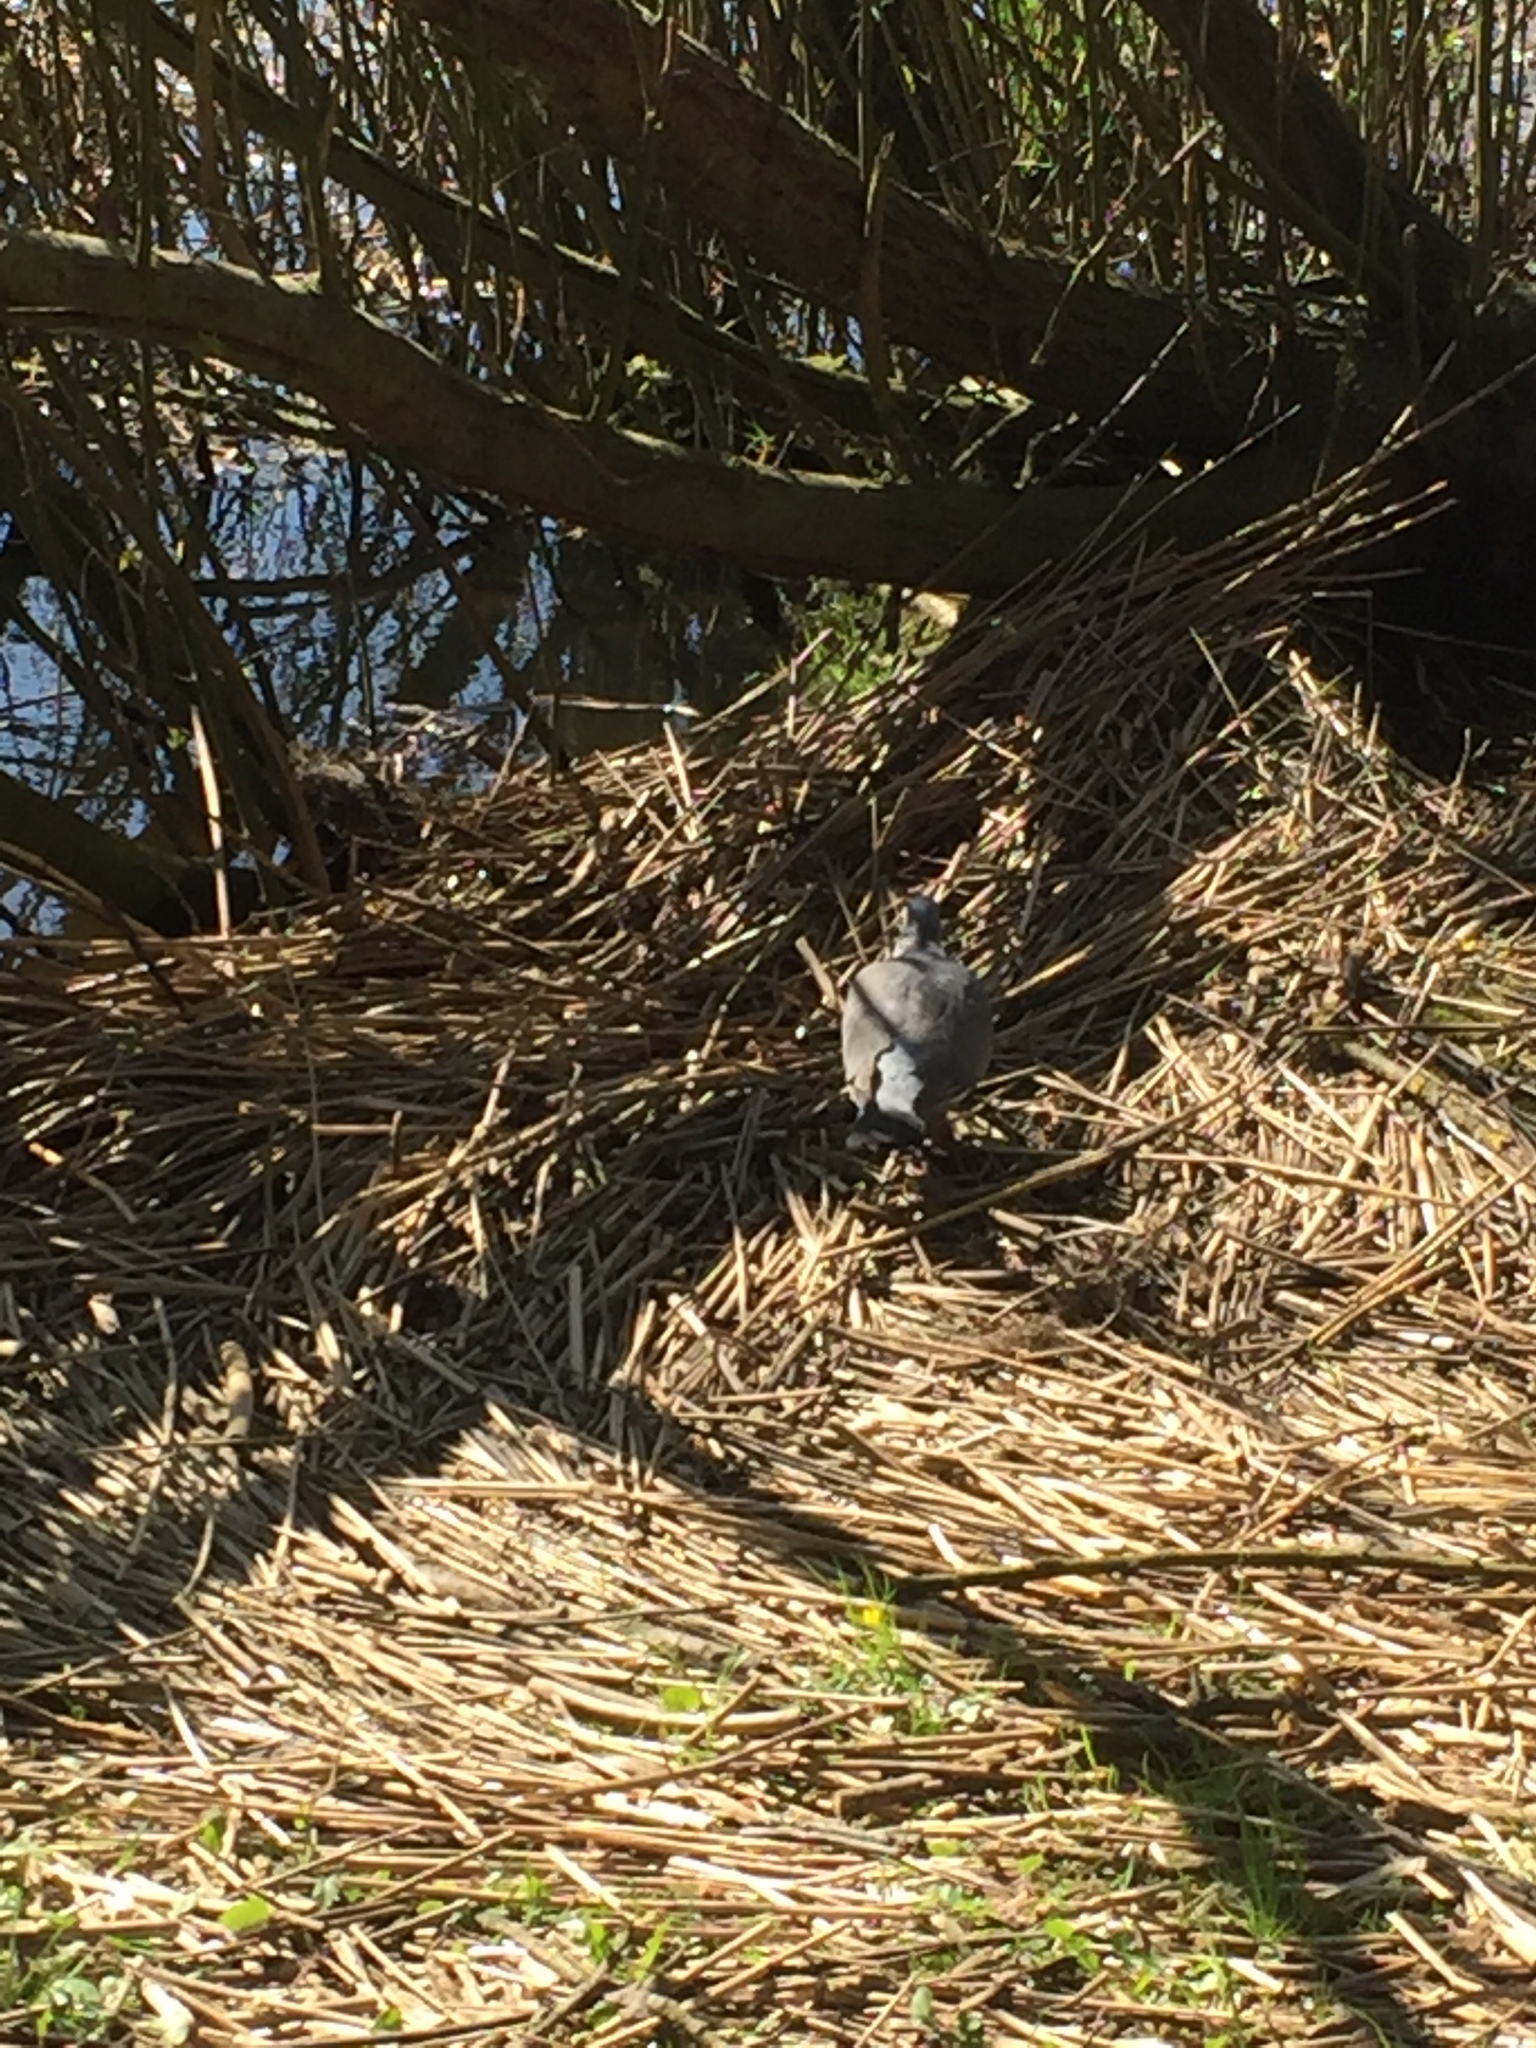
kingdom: Animalia
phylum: Chordata
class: Aves
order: Columbiformes
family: Columbidae
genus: Columba
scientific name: Columba palumbus
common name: Common wood pigeon
